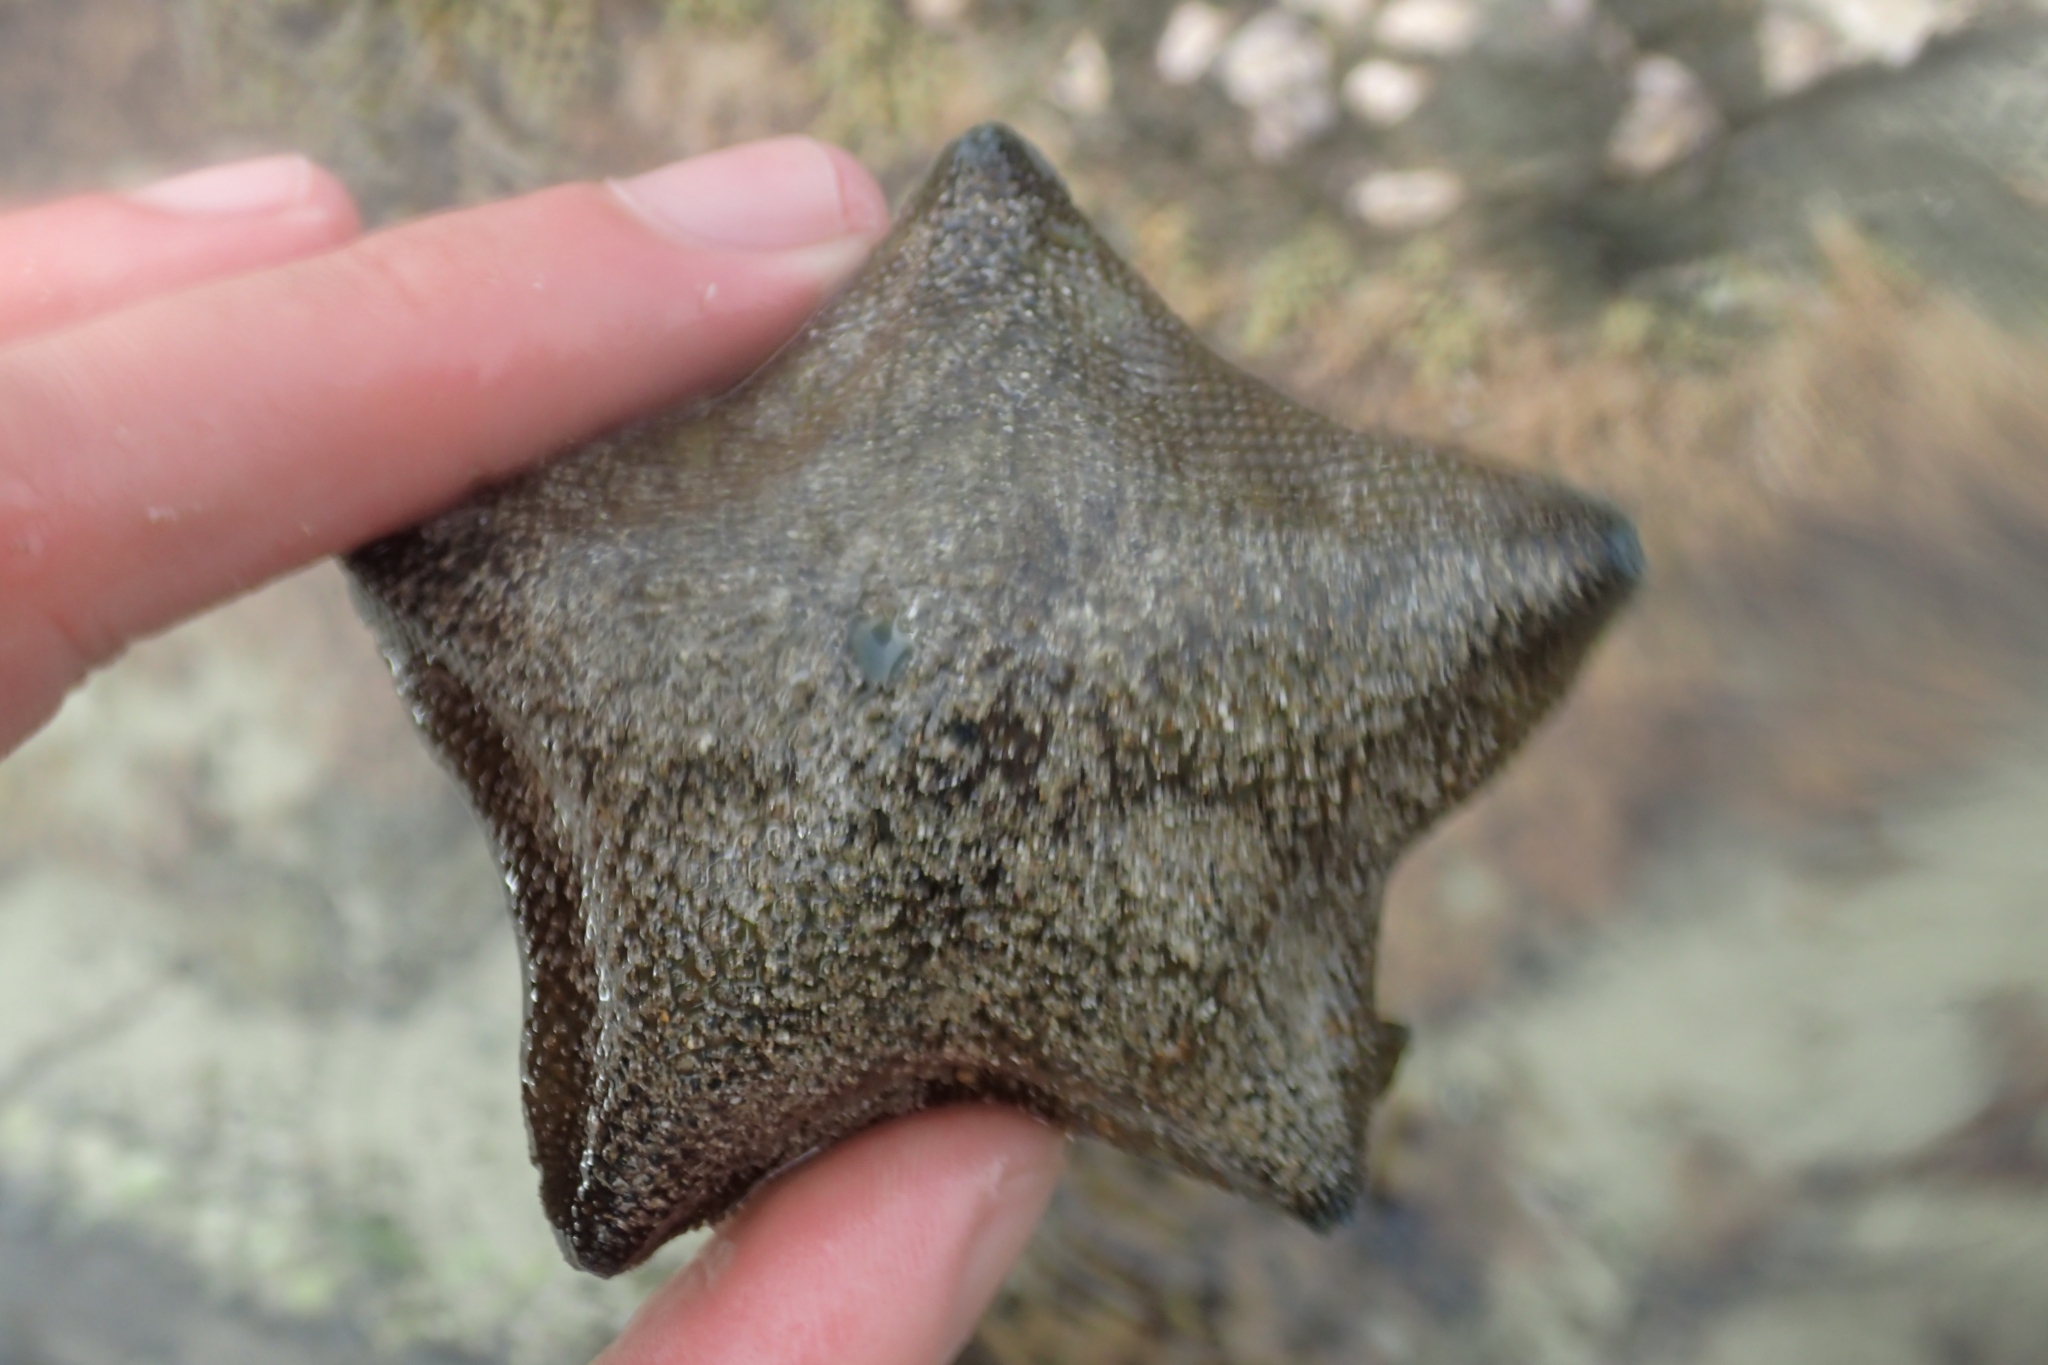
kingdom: Animalia
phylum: Echinodermata
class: Asteroidea
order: Valvatida
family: Asterinidae
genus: Patiriella
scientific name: Patiriella regularis
